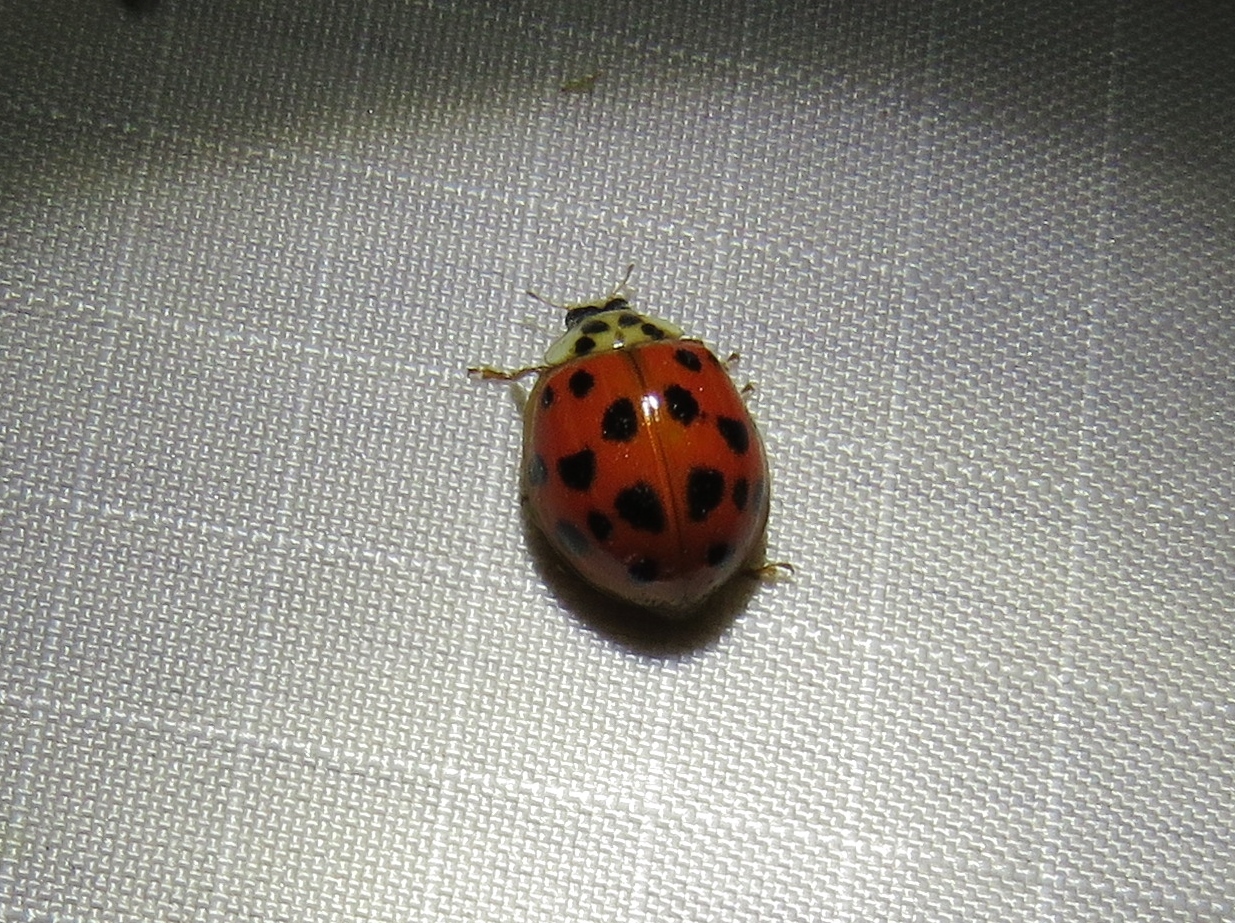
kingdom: Animalia
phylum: Arthropoda
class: Insecta
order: Coleoptera
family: Coccinellidae
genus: Harmonia
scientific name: Harmonia axyridis
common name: Harlequin ladybird
